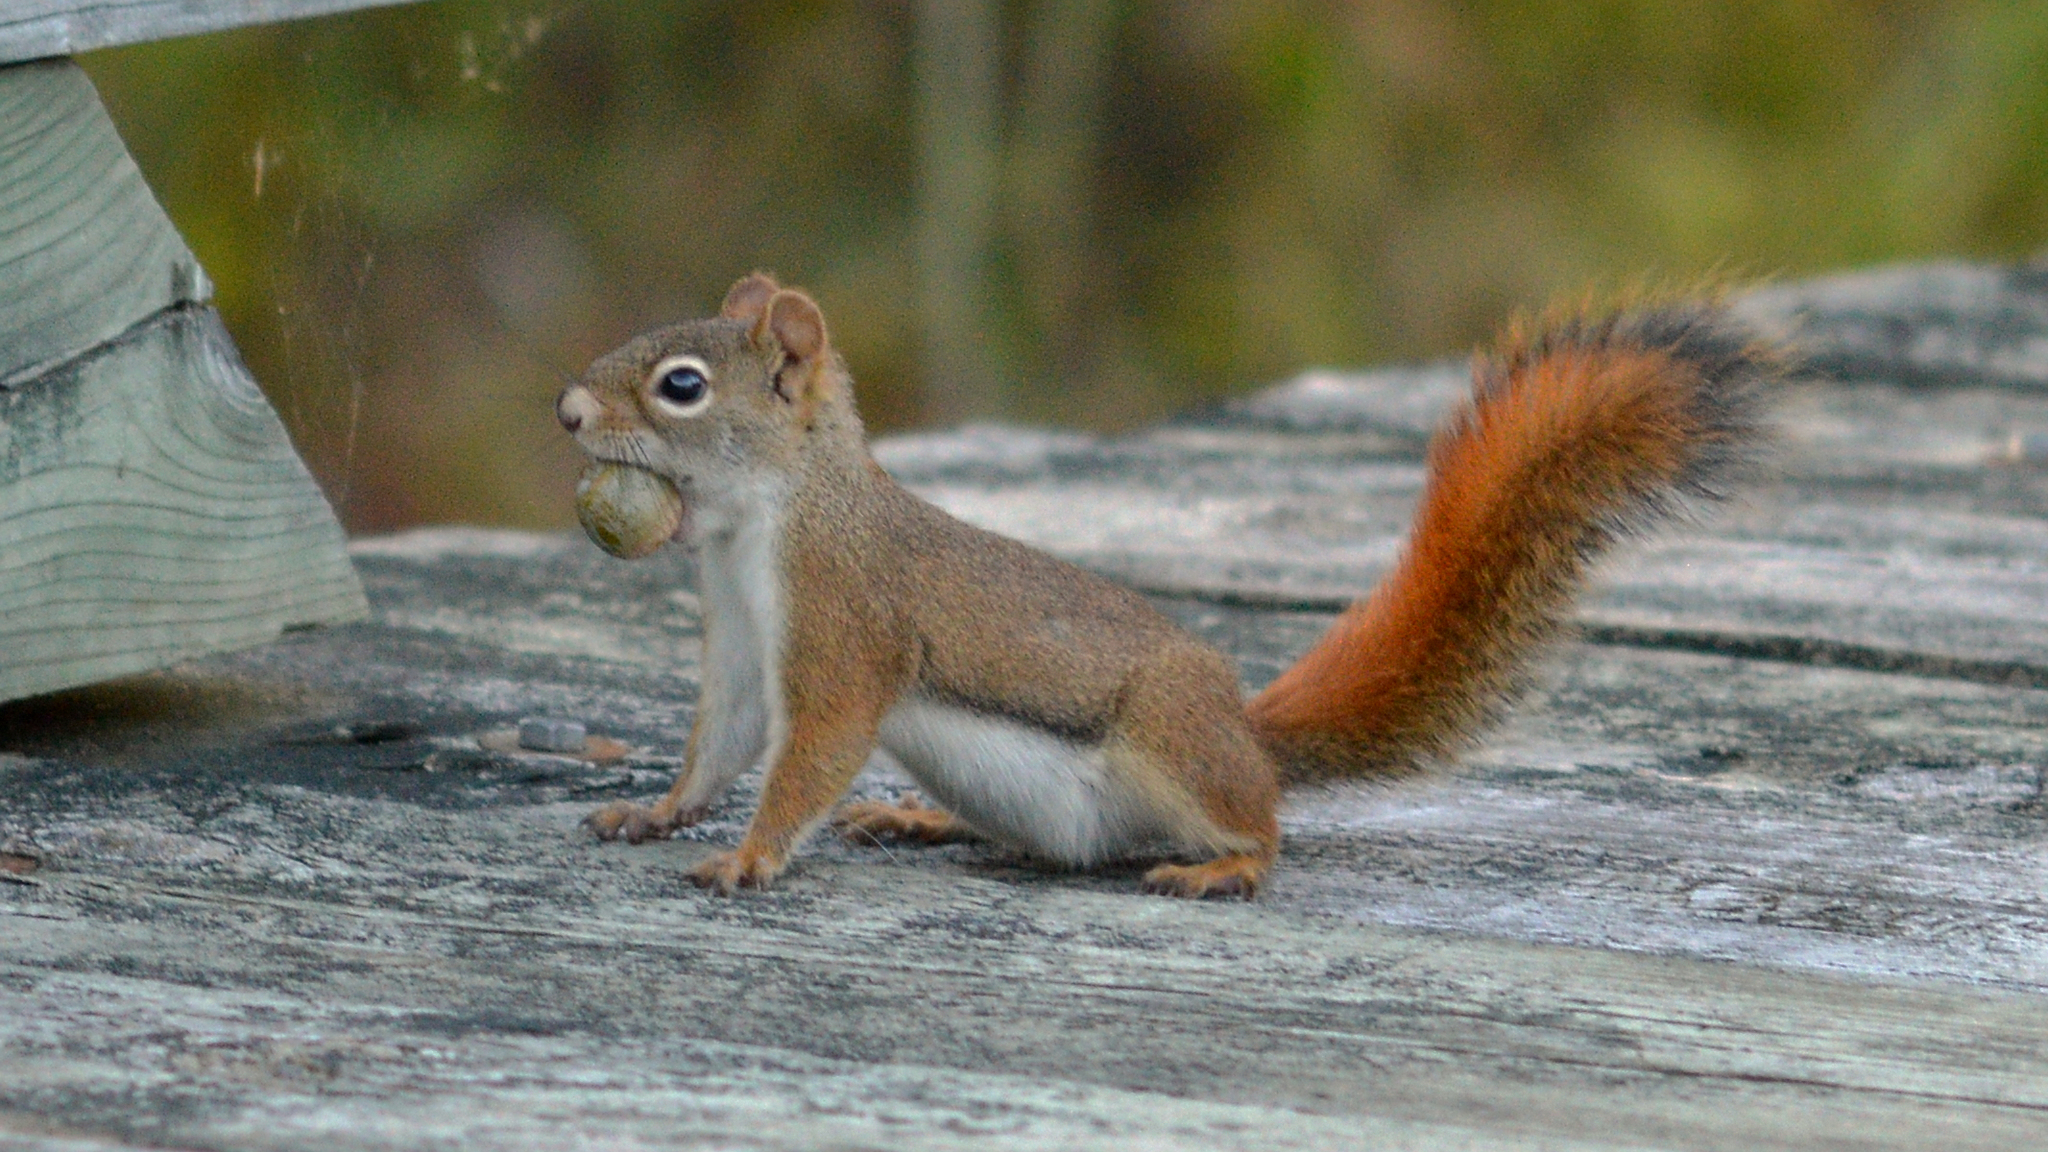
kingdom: Animalia
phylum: Chordata
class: Mammalia
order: Rodentia
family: Sciuridae
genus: Tamiasciurus
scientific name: Tamiasciurus hudsonicus
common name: Red squirrel
